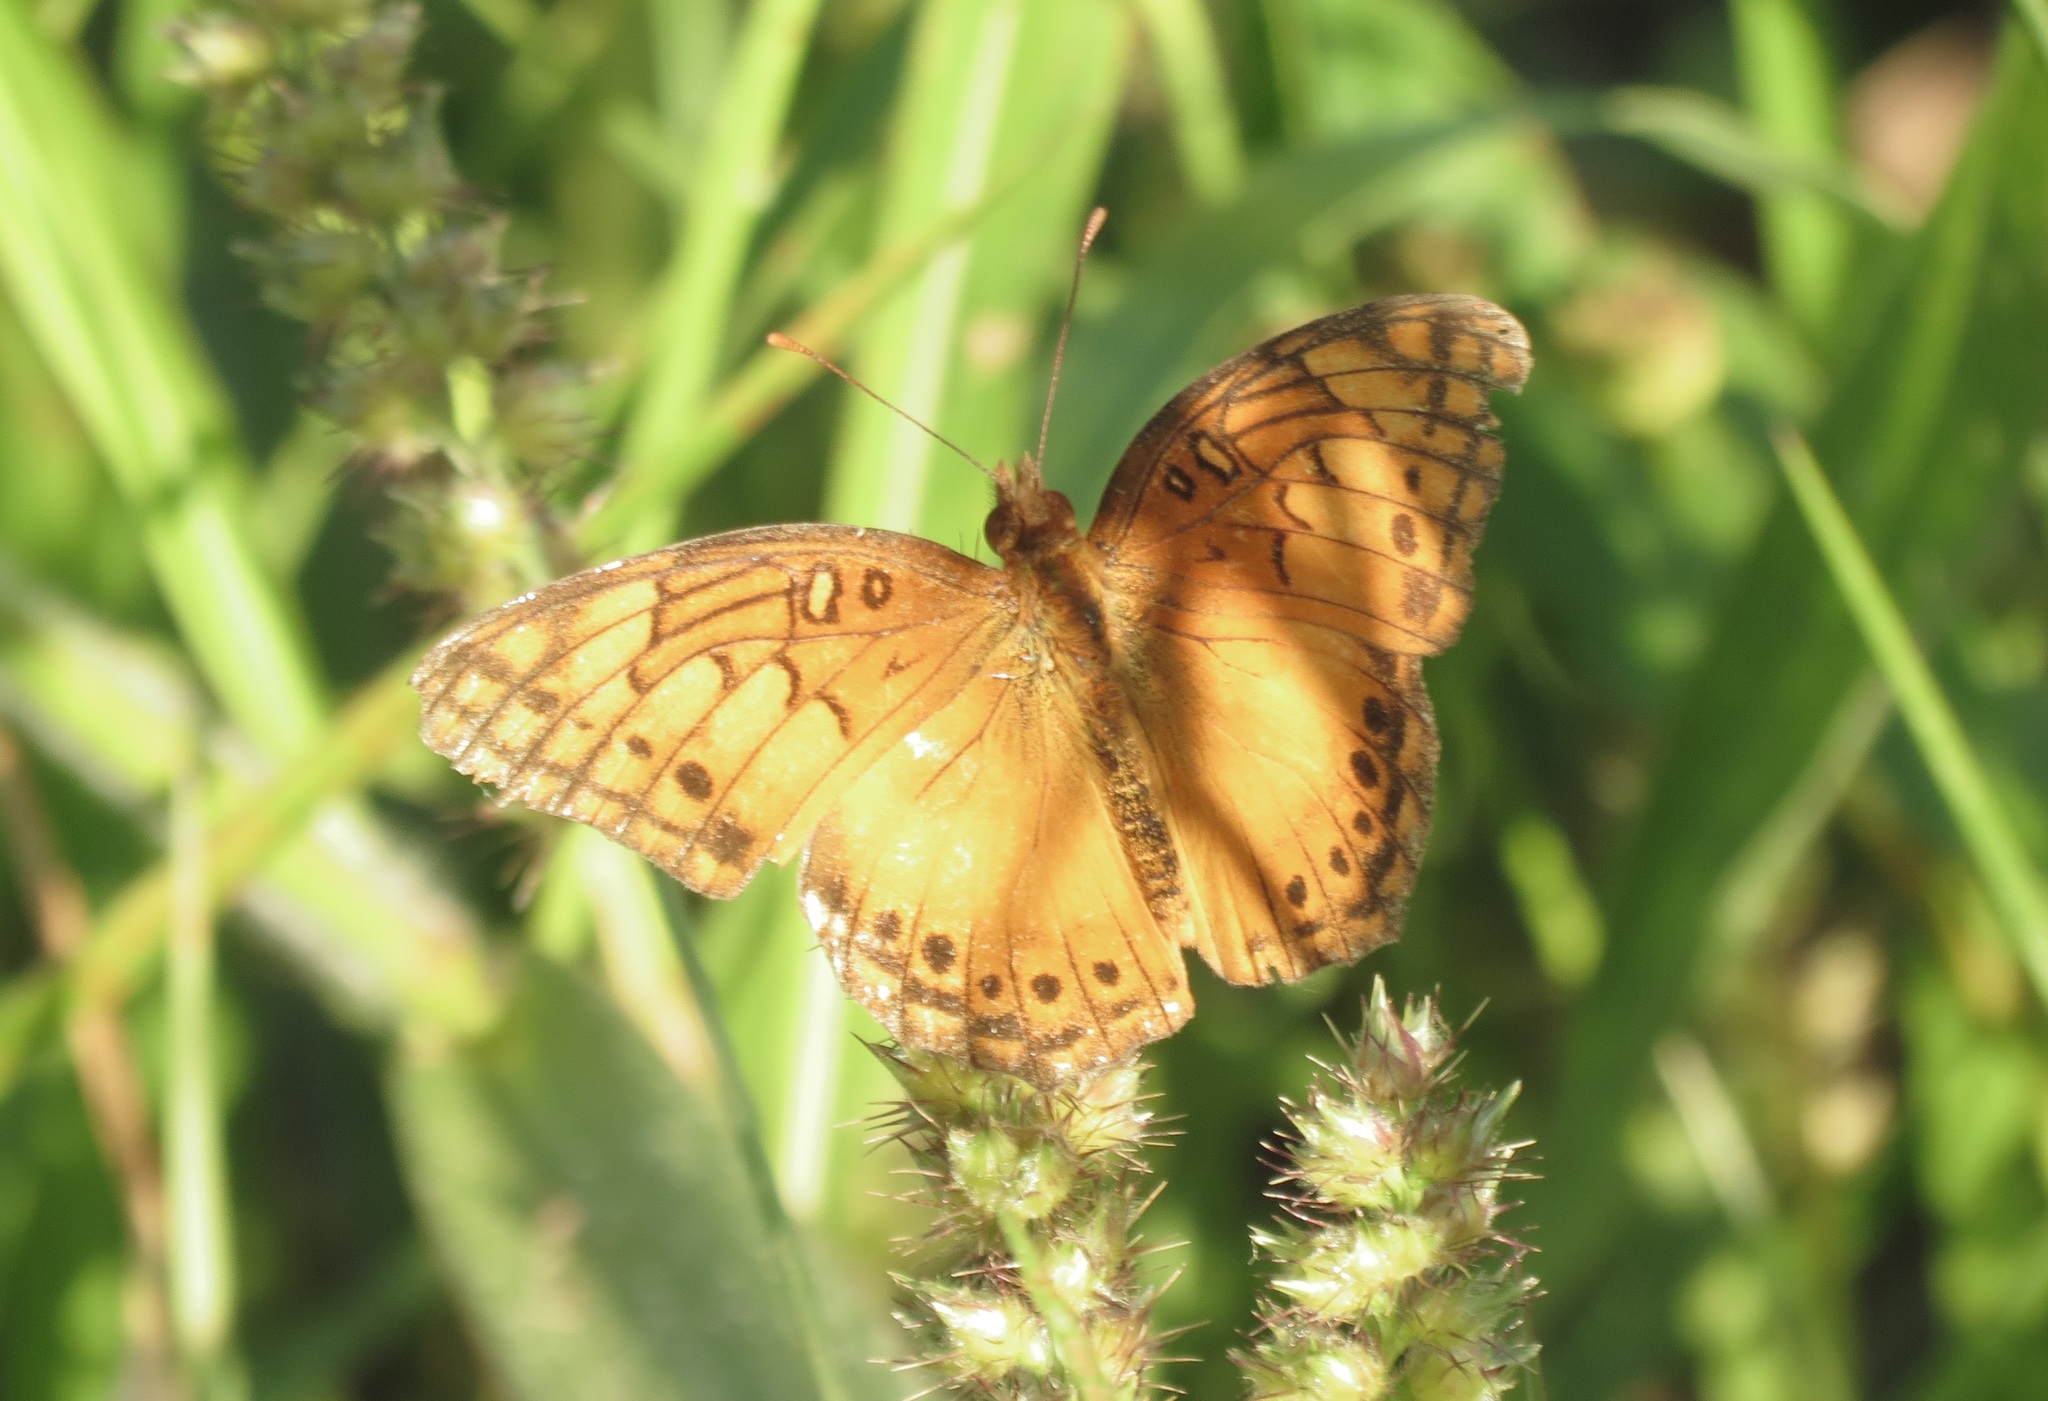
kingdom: Animalia
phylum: Arthropoda
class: Insecta
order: Lepidoptera
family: Nymphalidae
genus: Euptoieta
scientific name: Euptoieta hegesia
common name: Mexican fritillary
